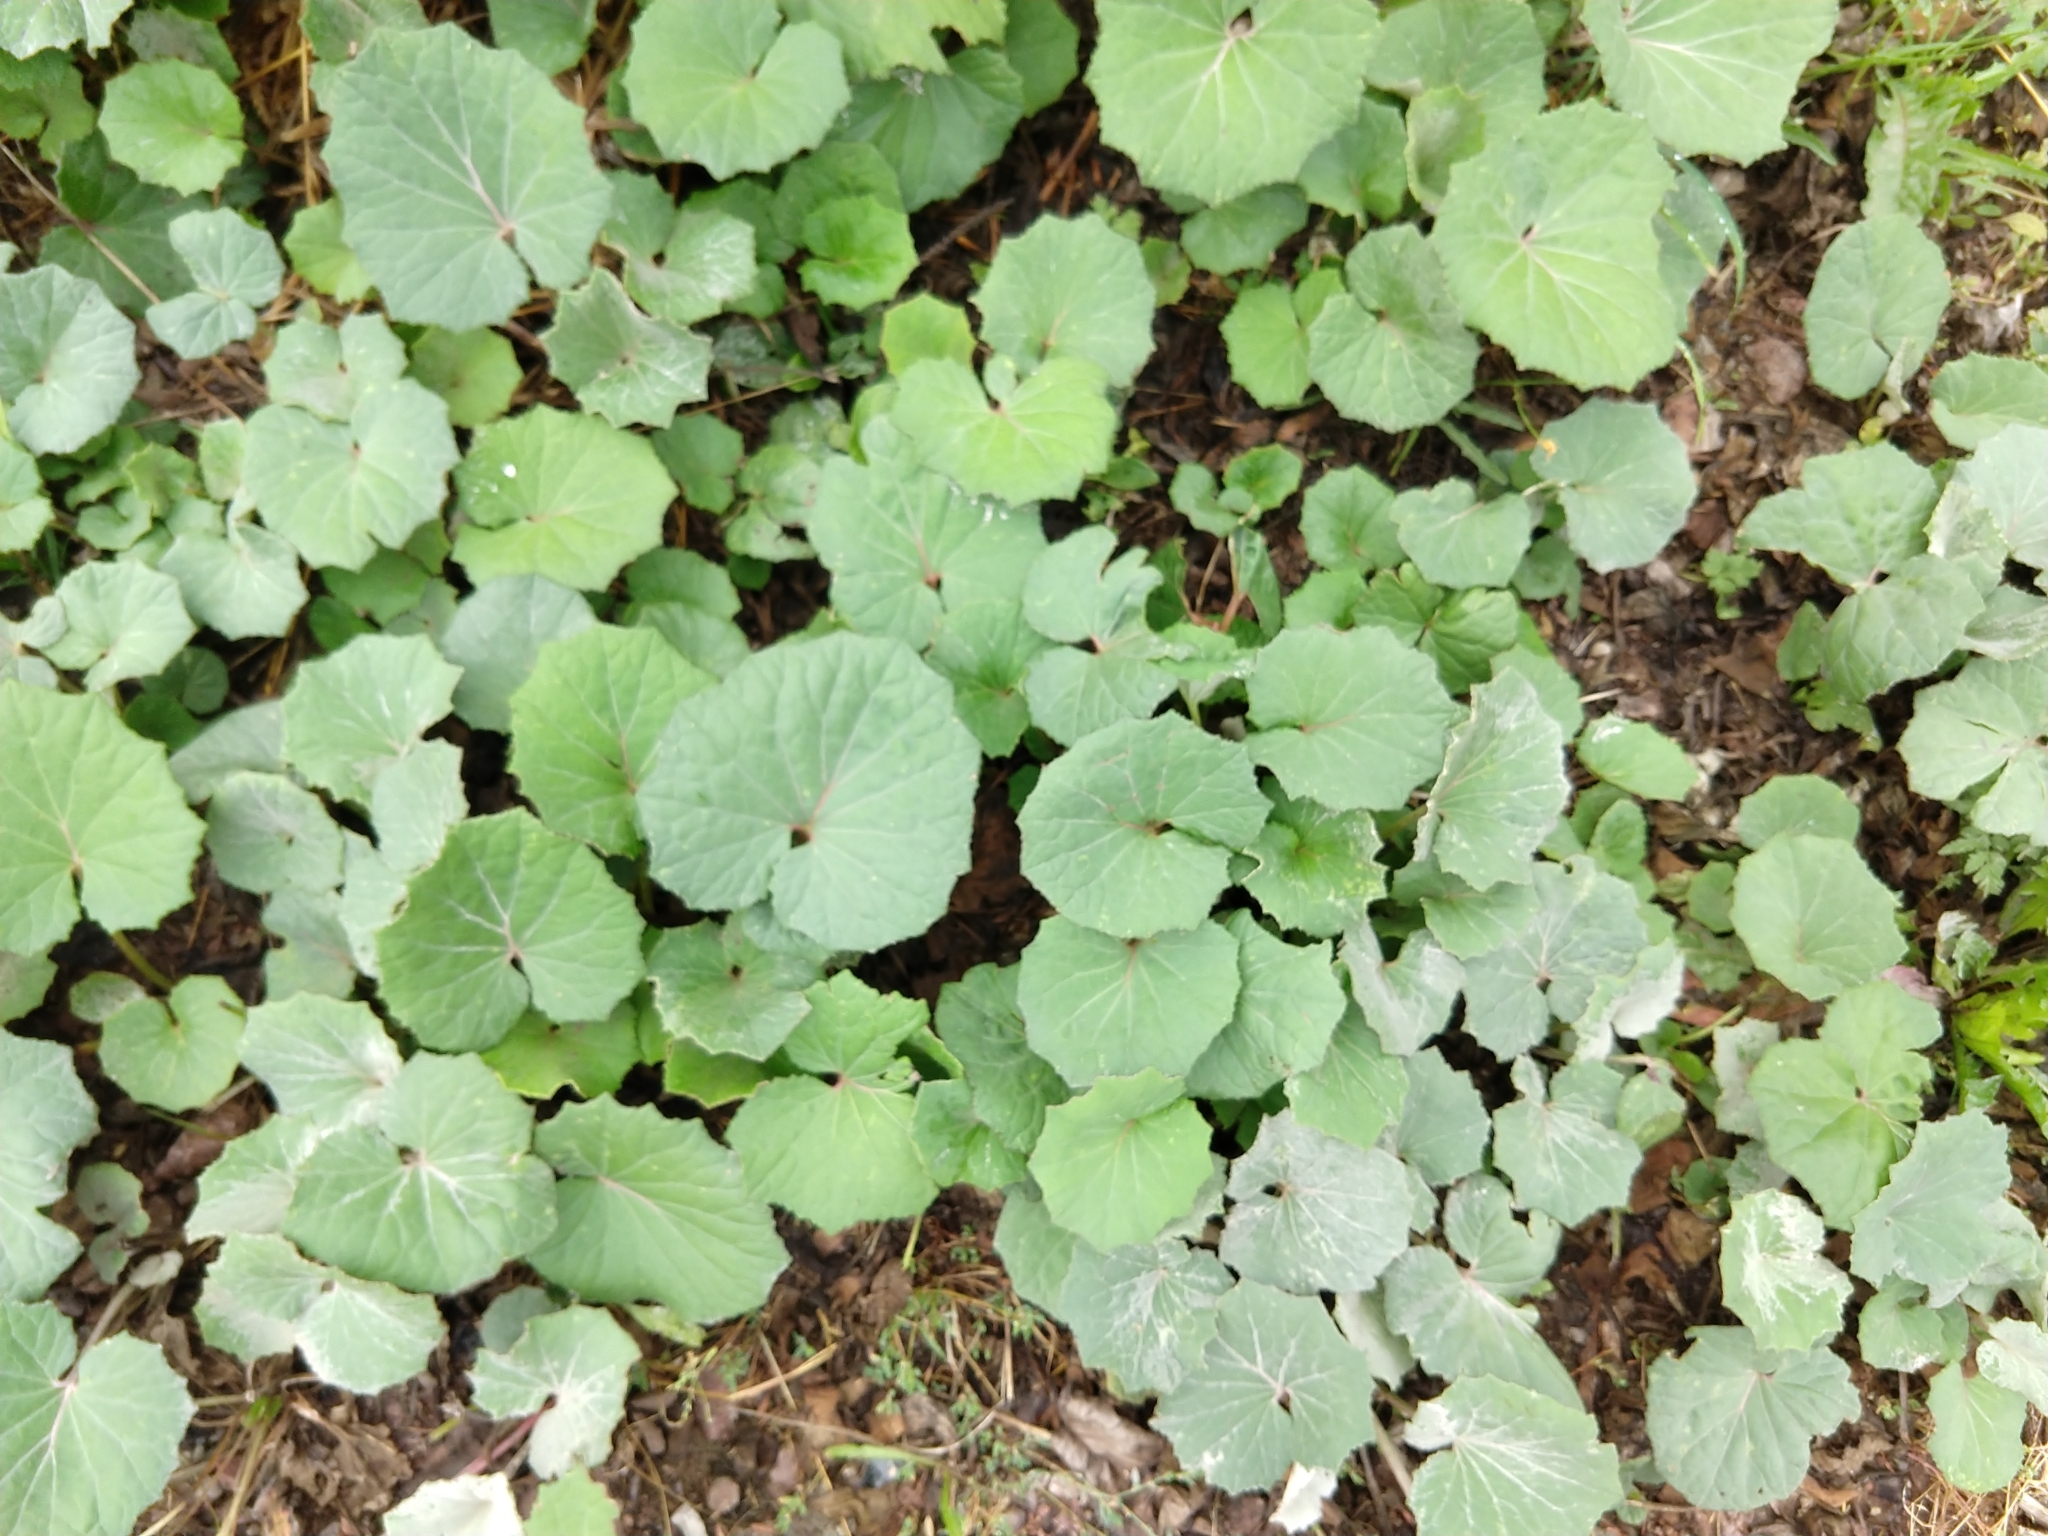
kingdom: Plantae
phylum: Tracheophyta
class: Magnoliopsida
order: Asterales
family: Asteraceae
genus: Tussilago
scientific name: Tussilago farfara
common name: Coltsfoot
